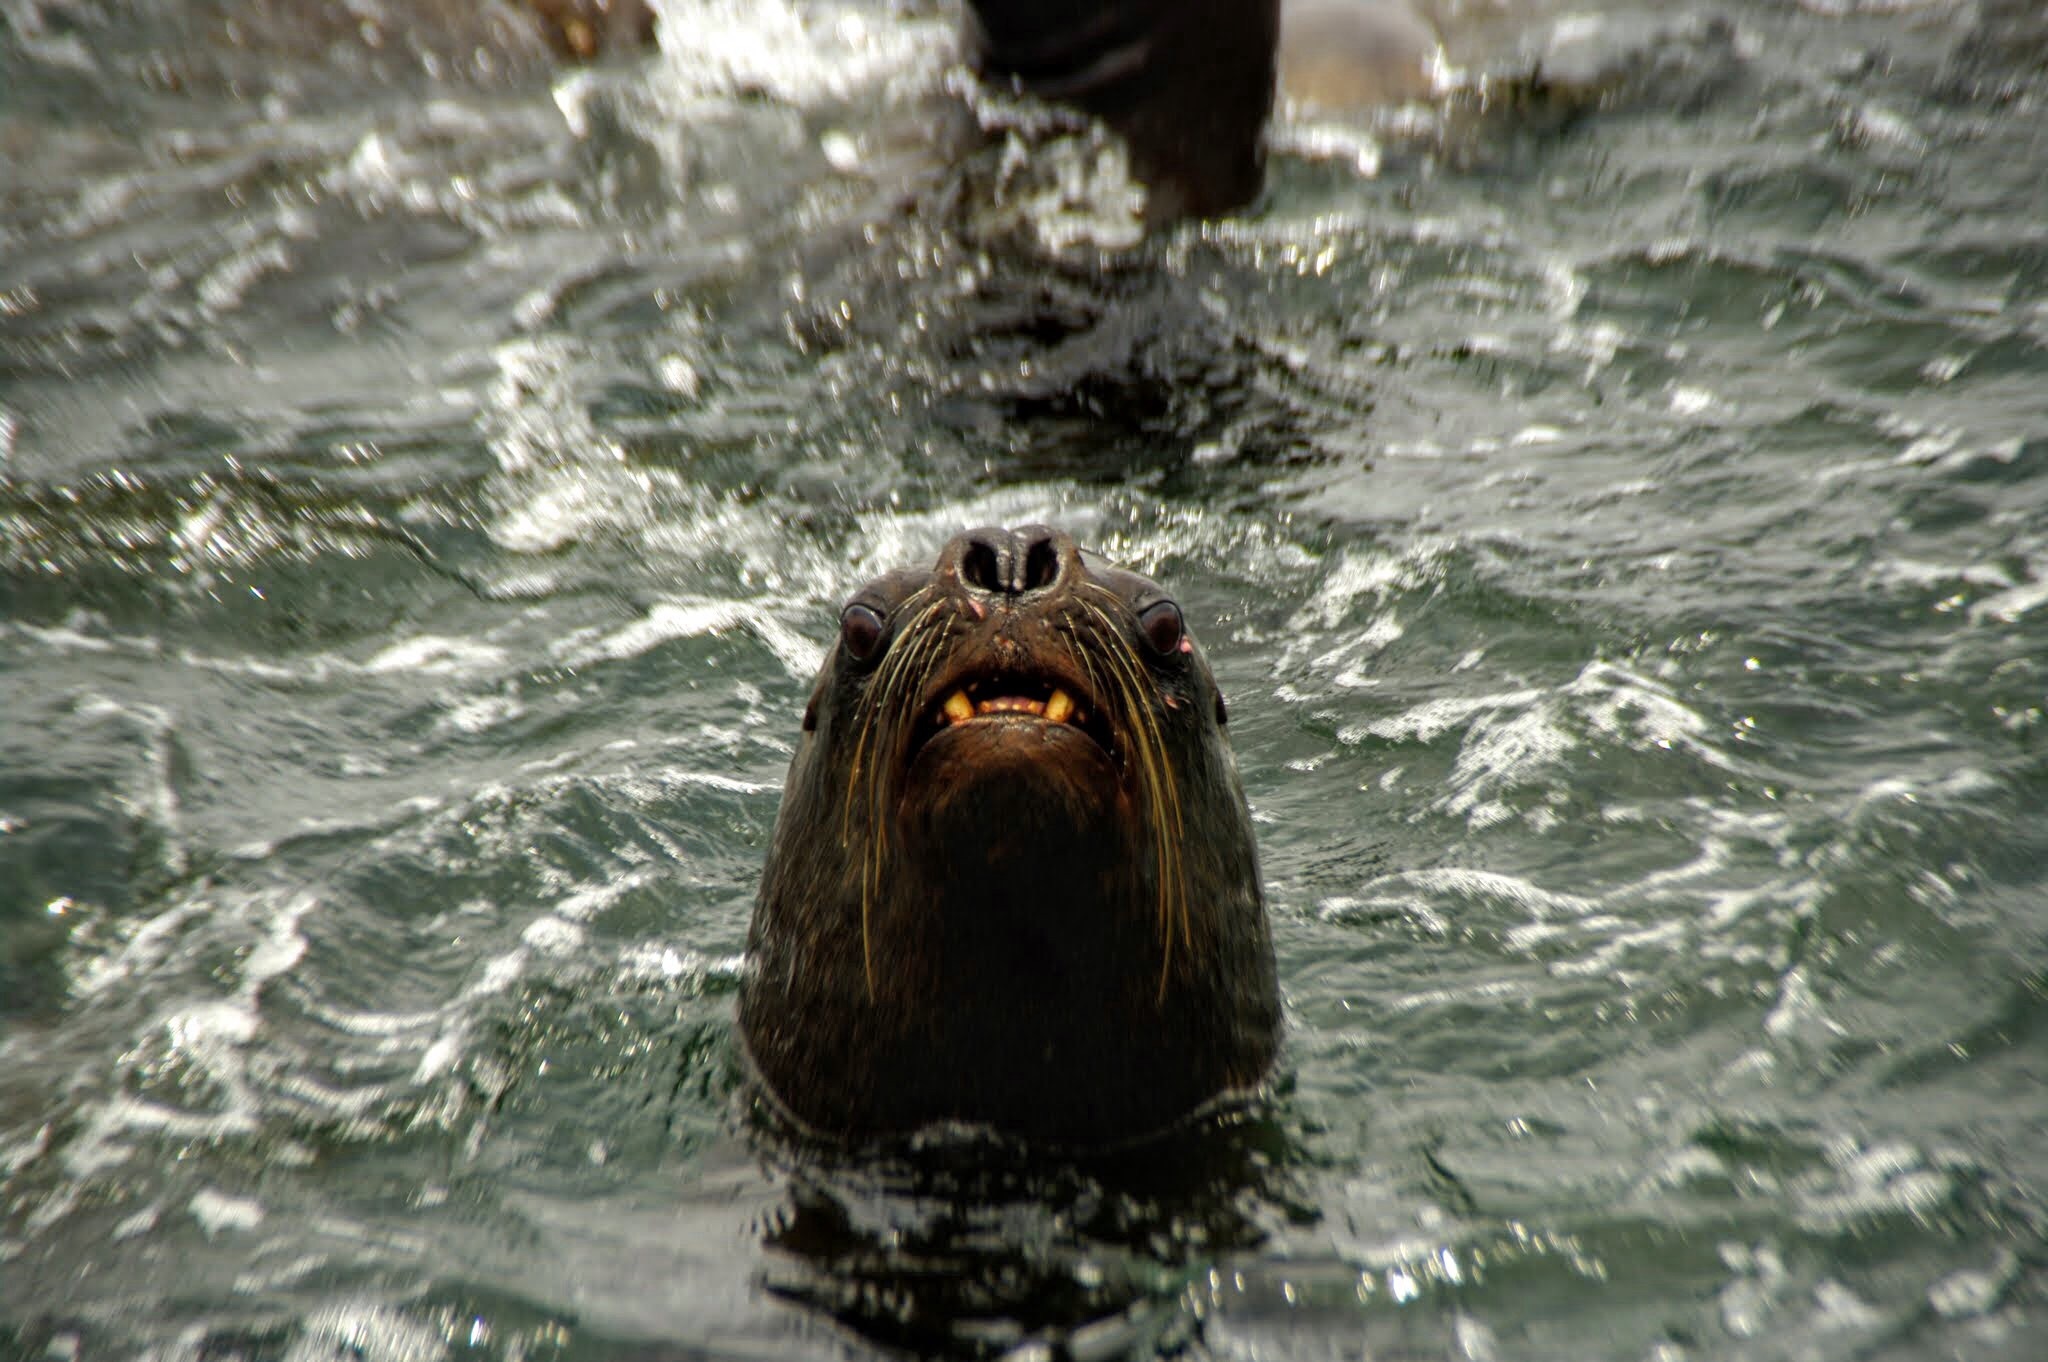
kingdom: Animalia
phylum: Chordata
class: Mammalia
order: Carnivora
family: Otariidae
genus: Otaria
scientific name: Otaria byronia
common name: South american sea lion
